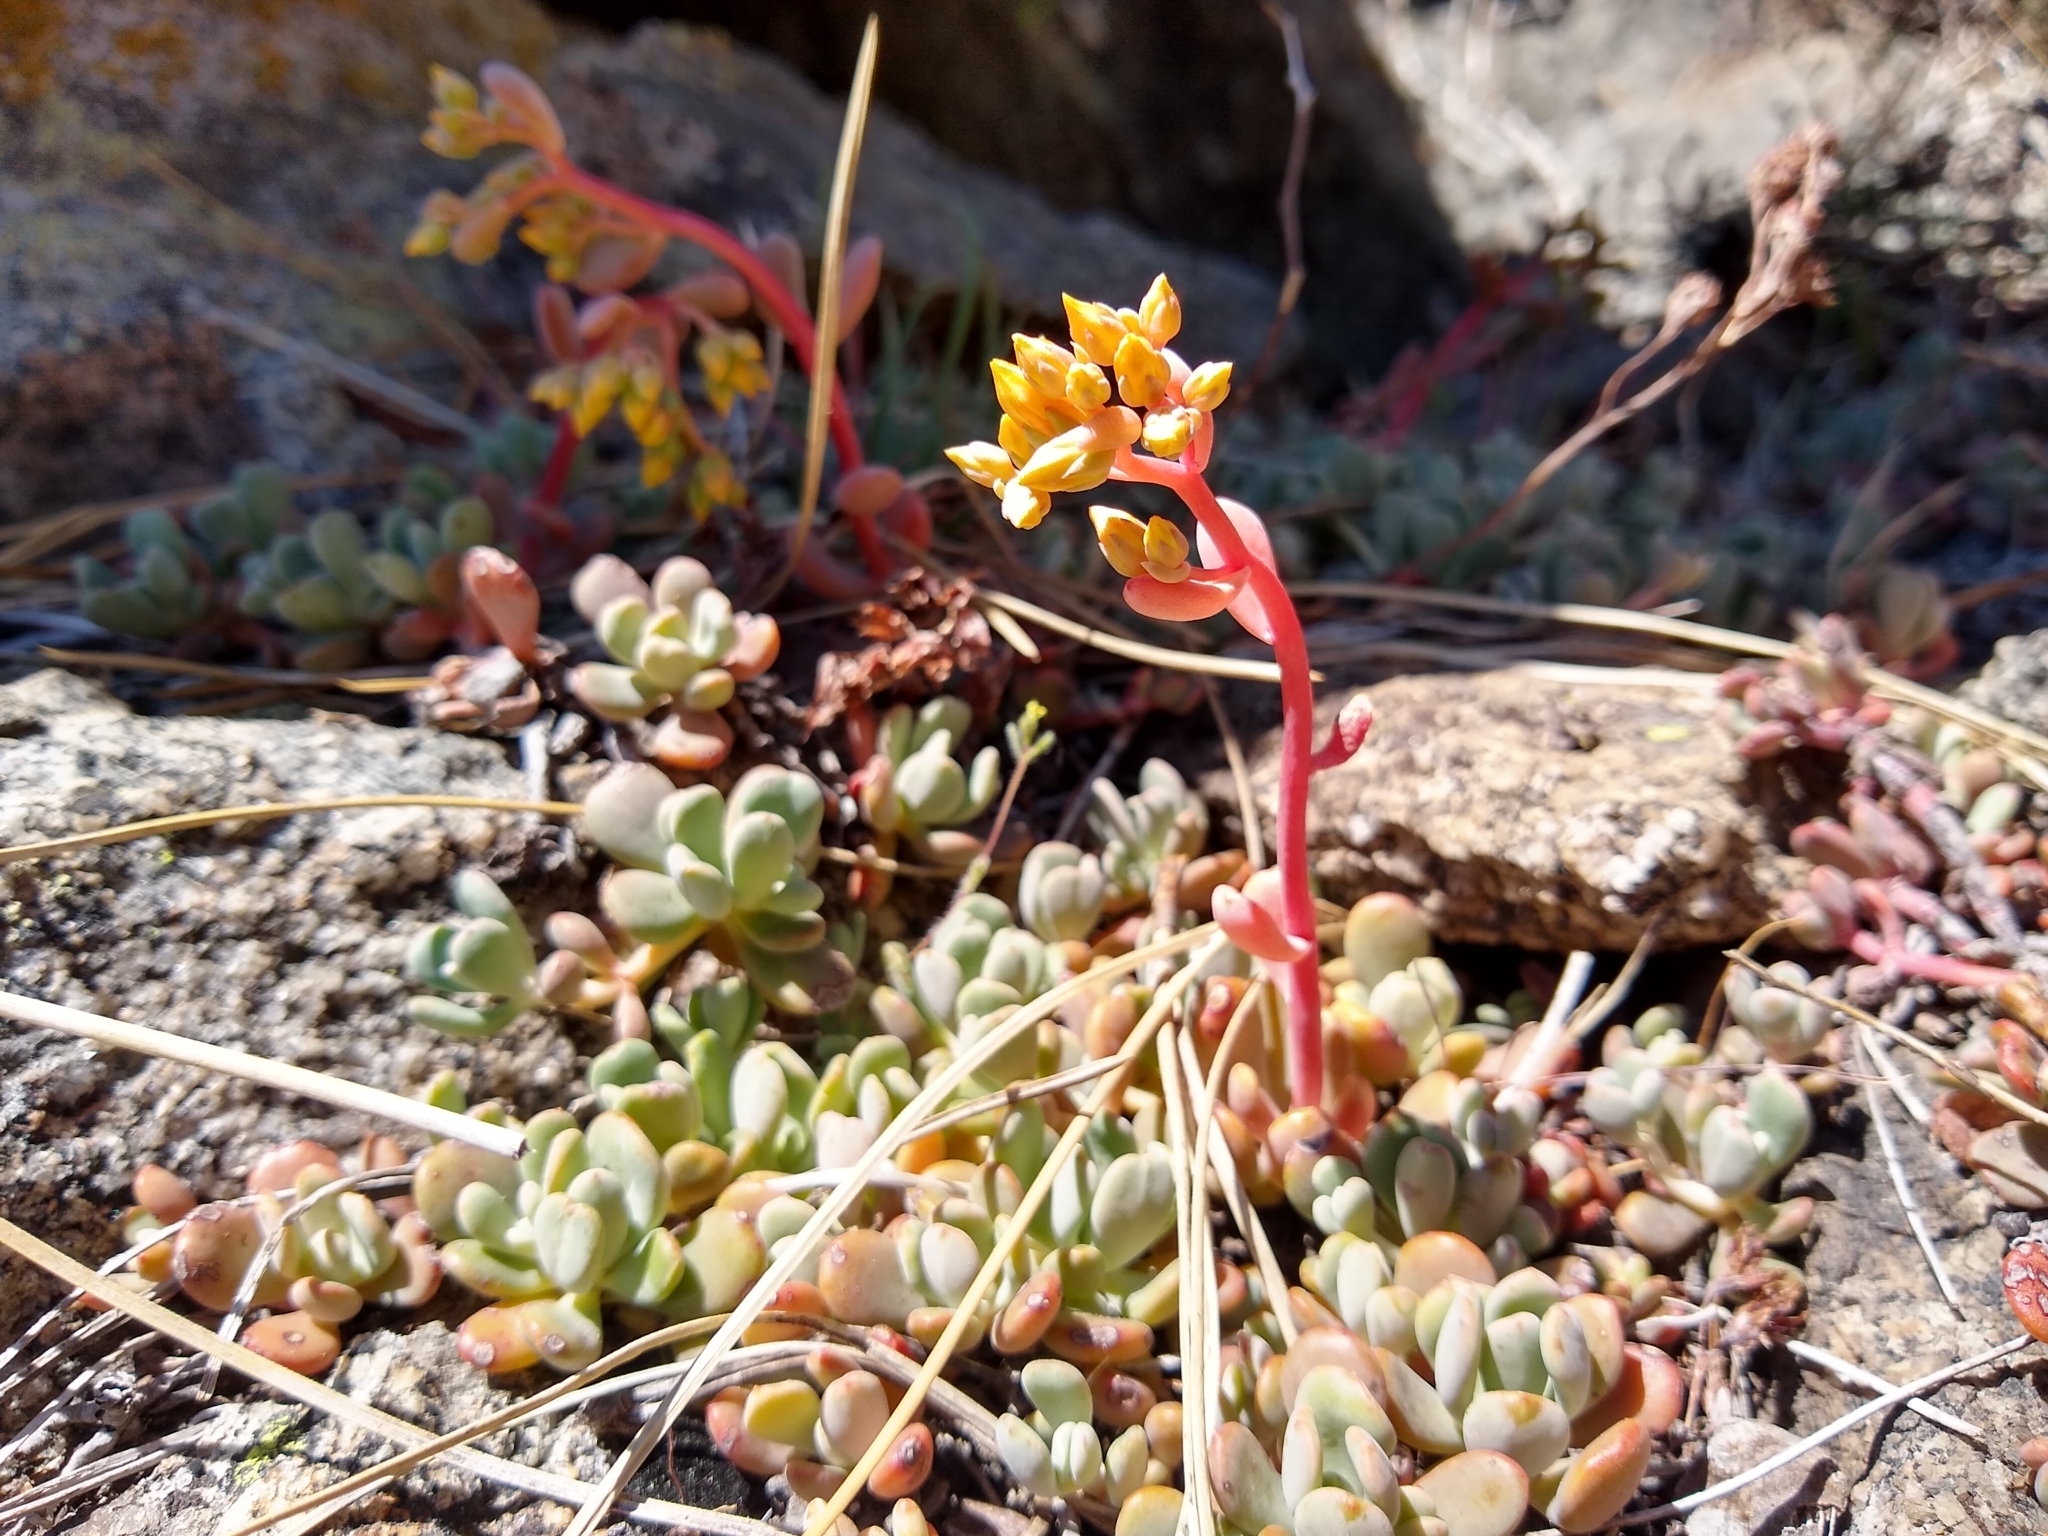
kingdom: Plantae
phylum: Tracheophyta
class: Magnoliopsida
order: Saxifragales
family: Crassulaceae
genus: Sedum
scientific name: Sedum obtusatum
